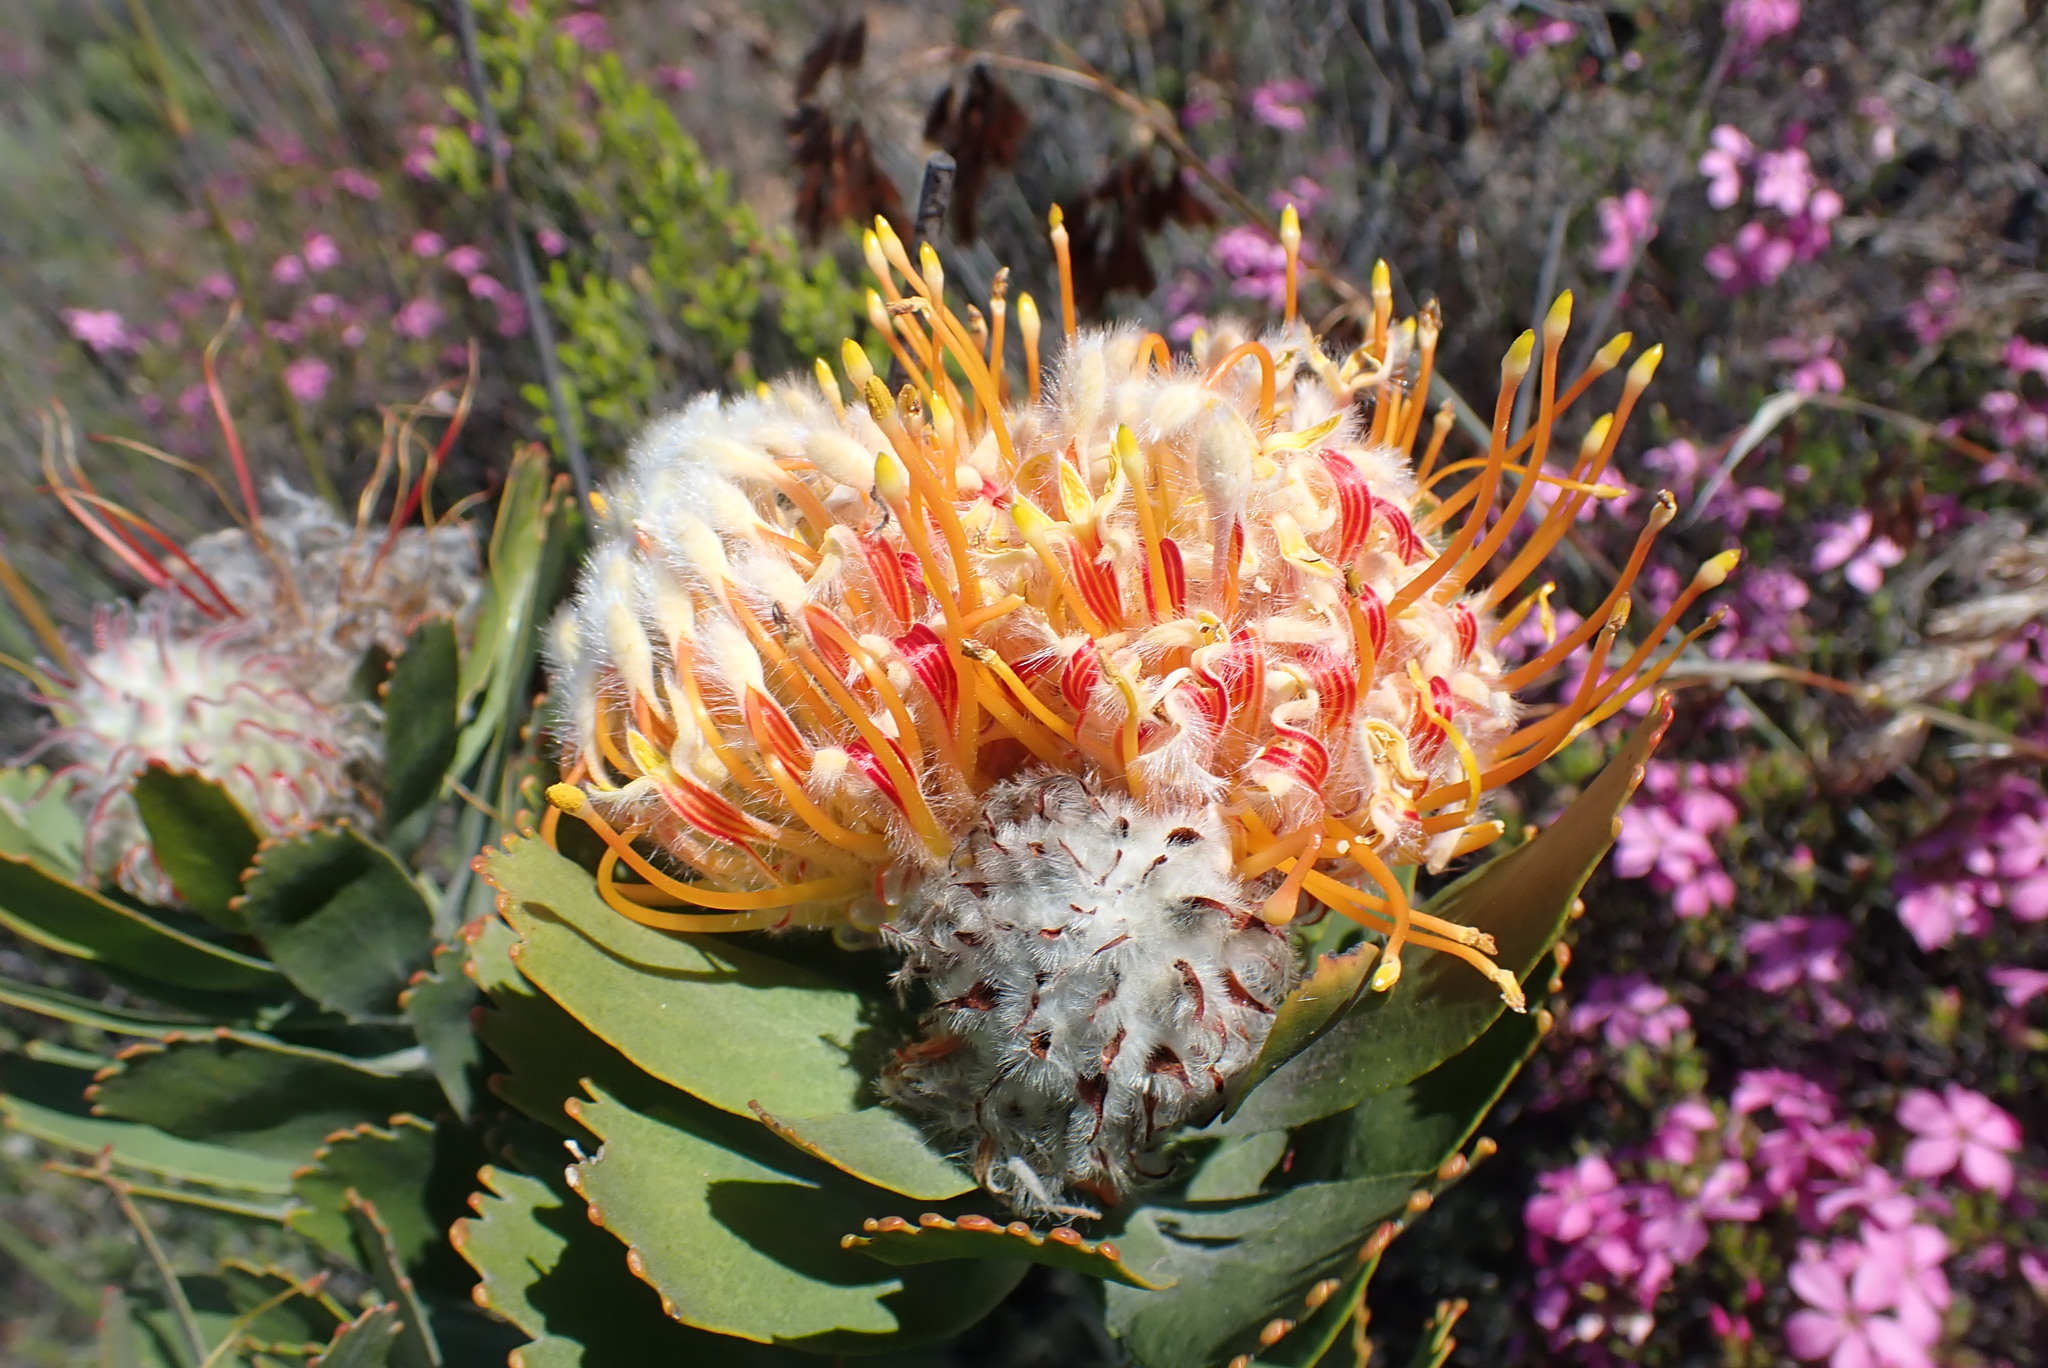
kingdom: Plantae
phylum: Tracheophyta
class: Magnoliopsida
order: Proteales
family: Proteaceae
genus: Leucospermum
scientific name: Leucospermum pluridens
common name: Robinson pincushion
